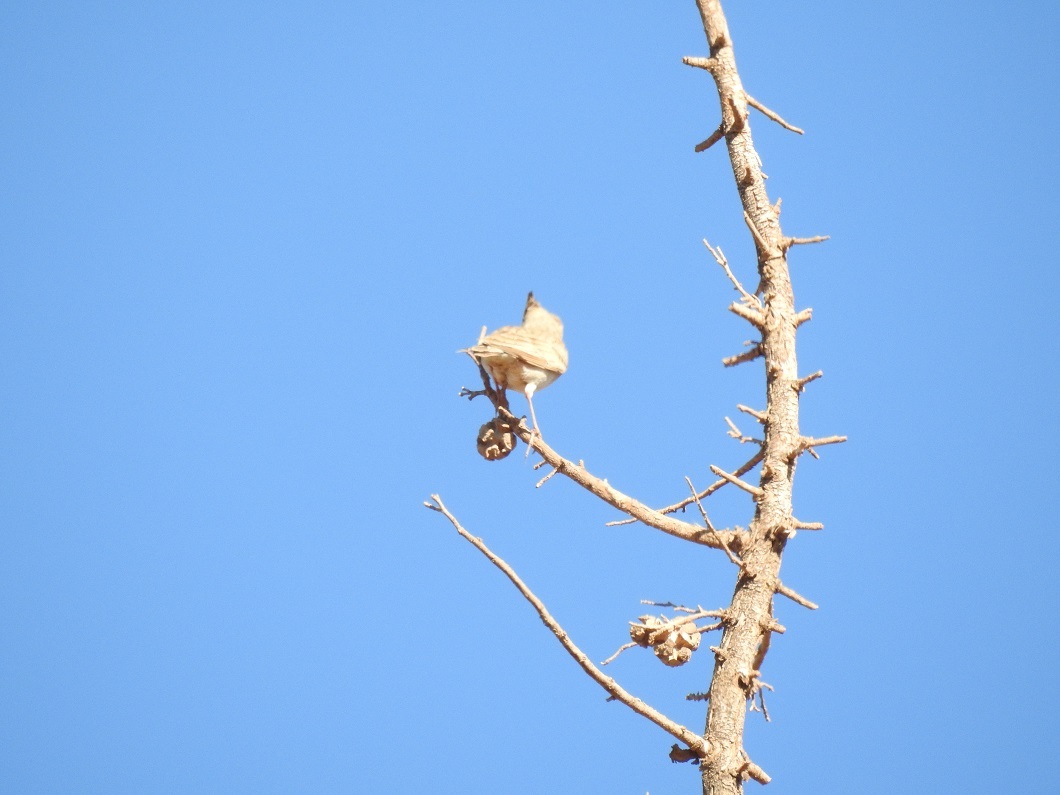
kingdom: Animalia
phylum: Chordata
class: Aves
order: Passeriformes
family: Alaudidae
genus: Galerida
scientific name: Galerida cristata
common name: Crested lark
